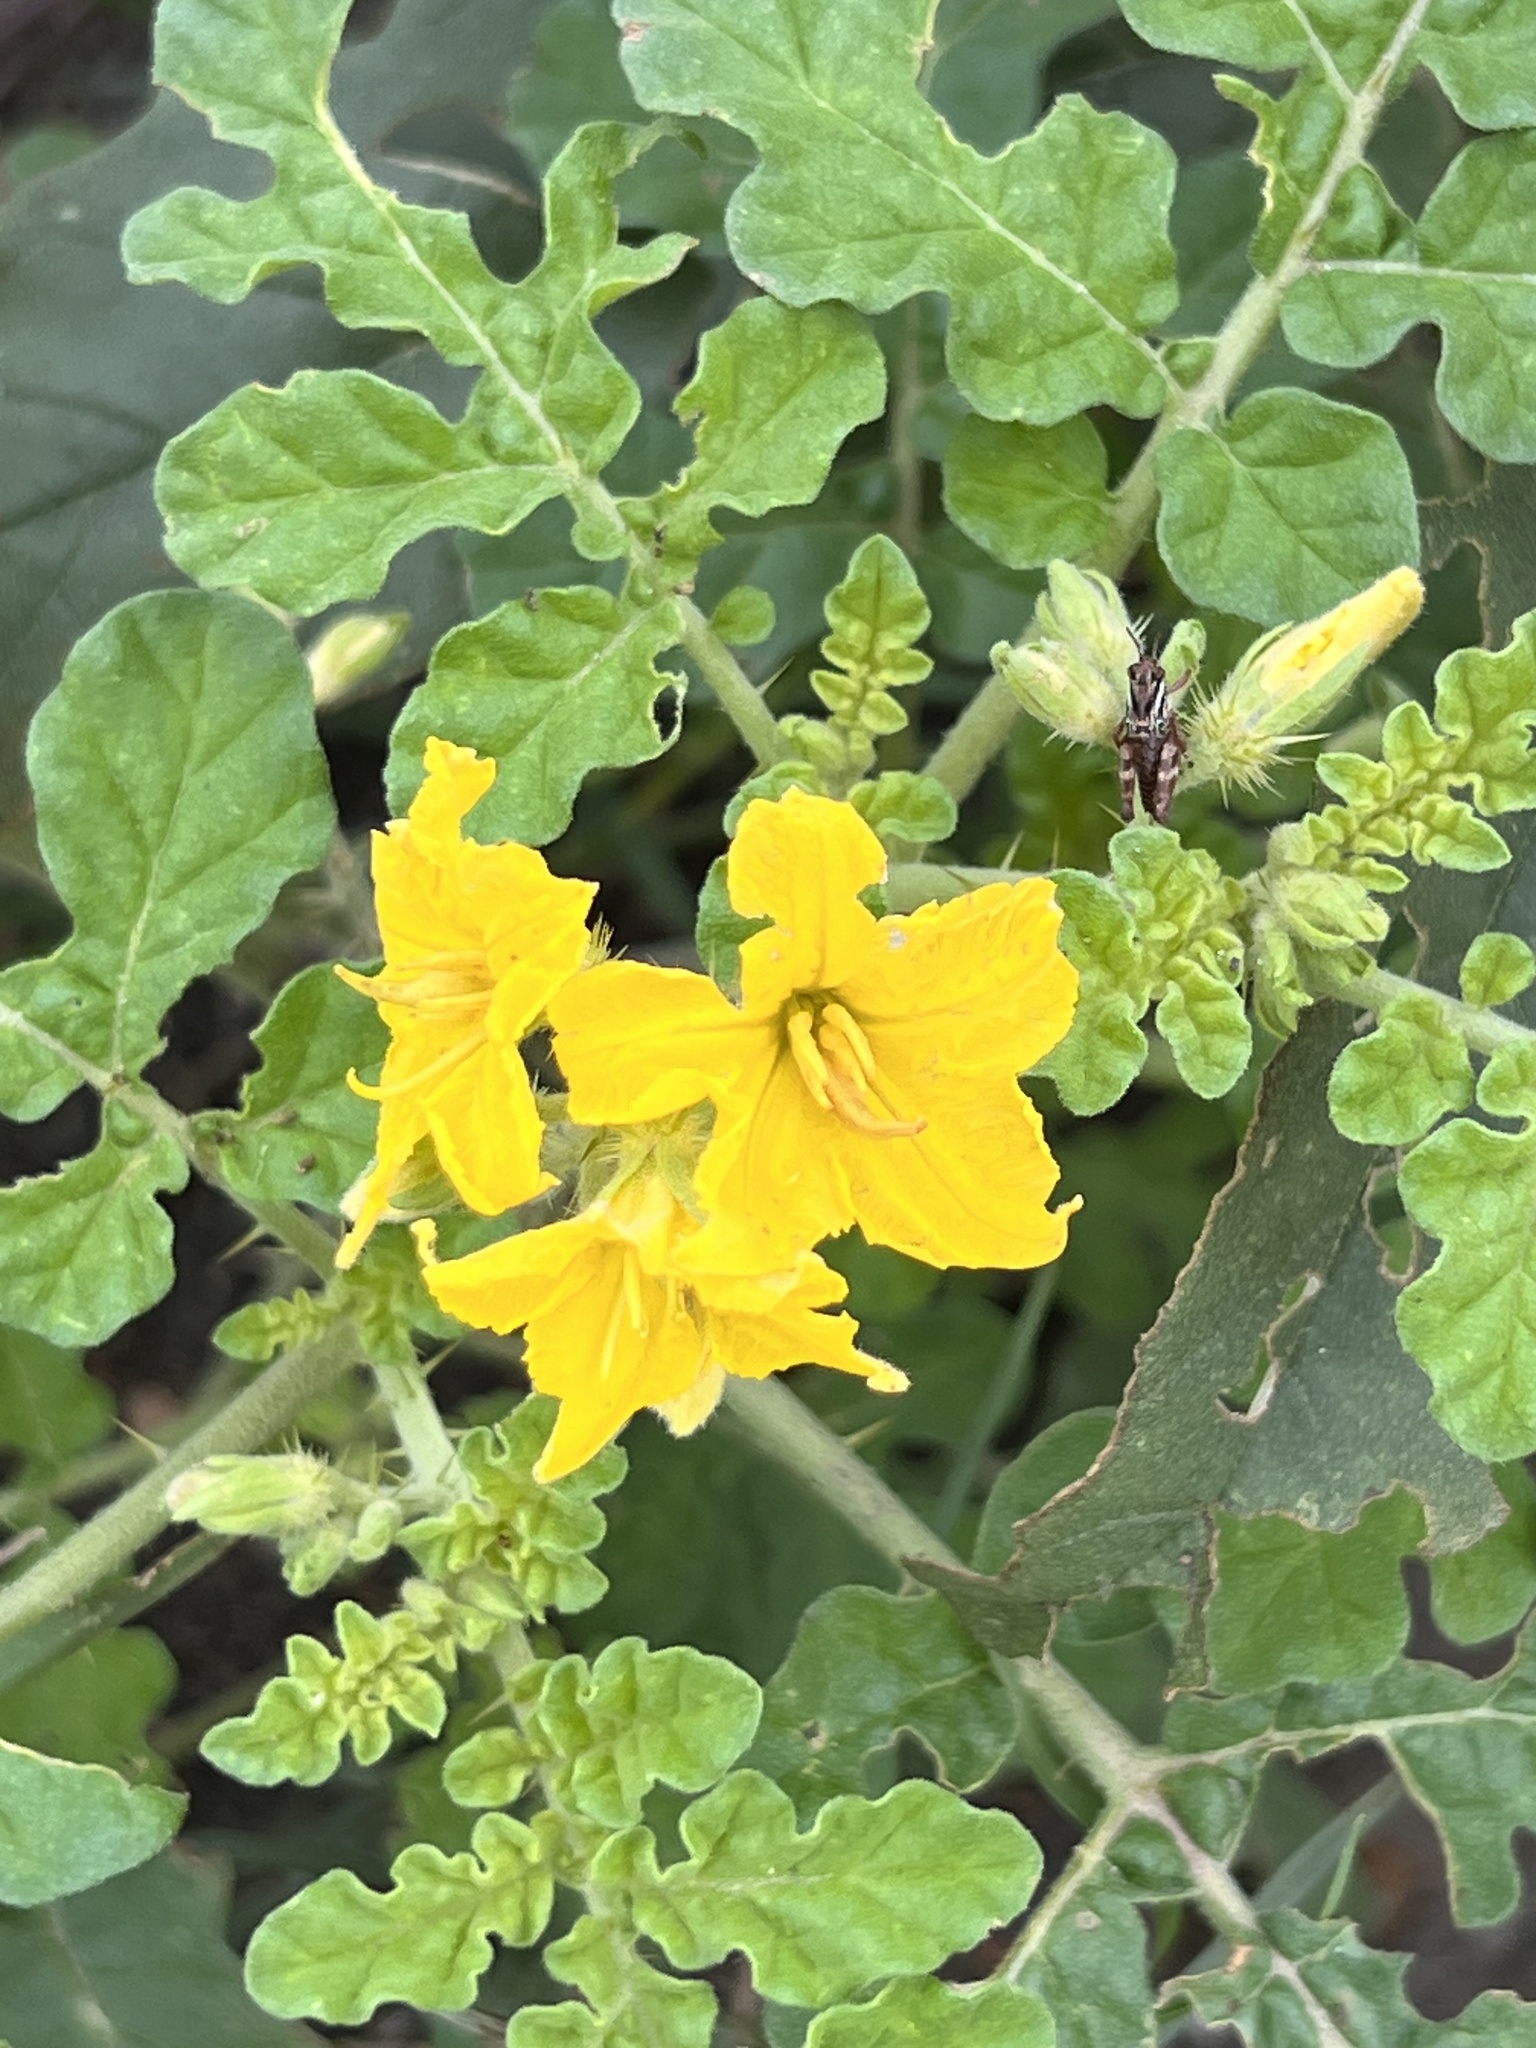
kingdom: Plantae
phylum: Tracheophyta
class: Magnoliopsida
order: Solanales
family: Solanaceae
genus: Solanum
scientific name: Solanum angustifolium
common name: Buffalobur nightshade
